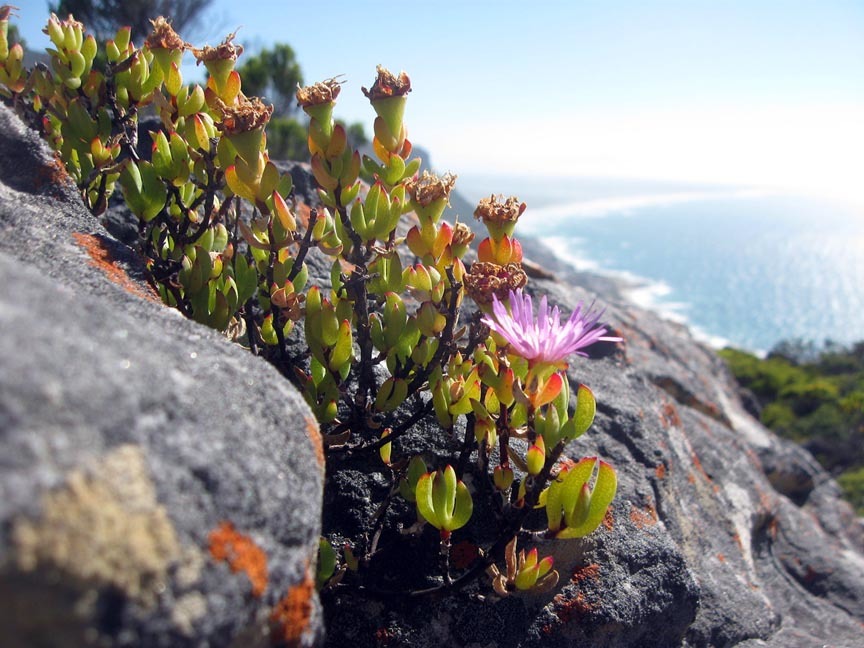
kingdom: Plantae
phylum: Tracheophyta
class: Magnoliopsida
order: Caryophyllales
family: Aizoaceae
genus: Oscularia
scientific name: Oscularia falciformis
